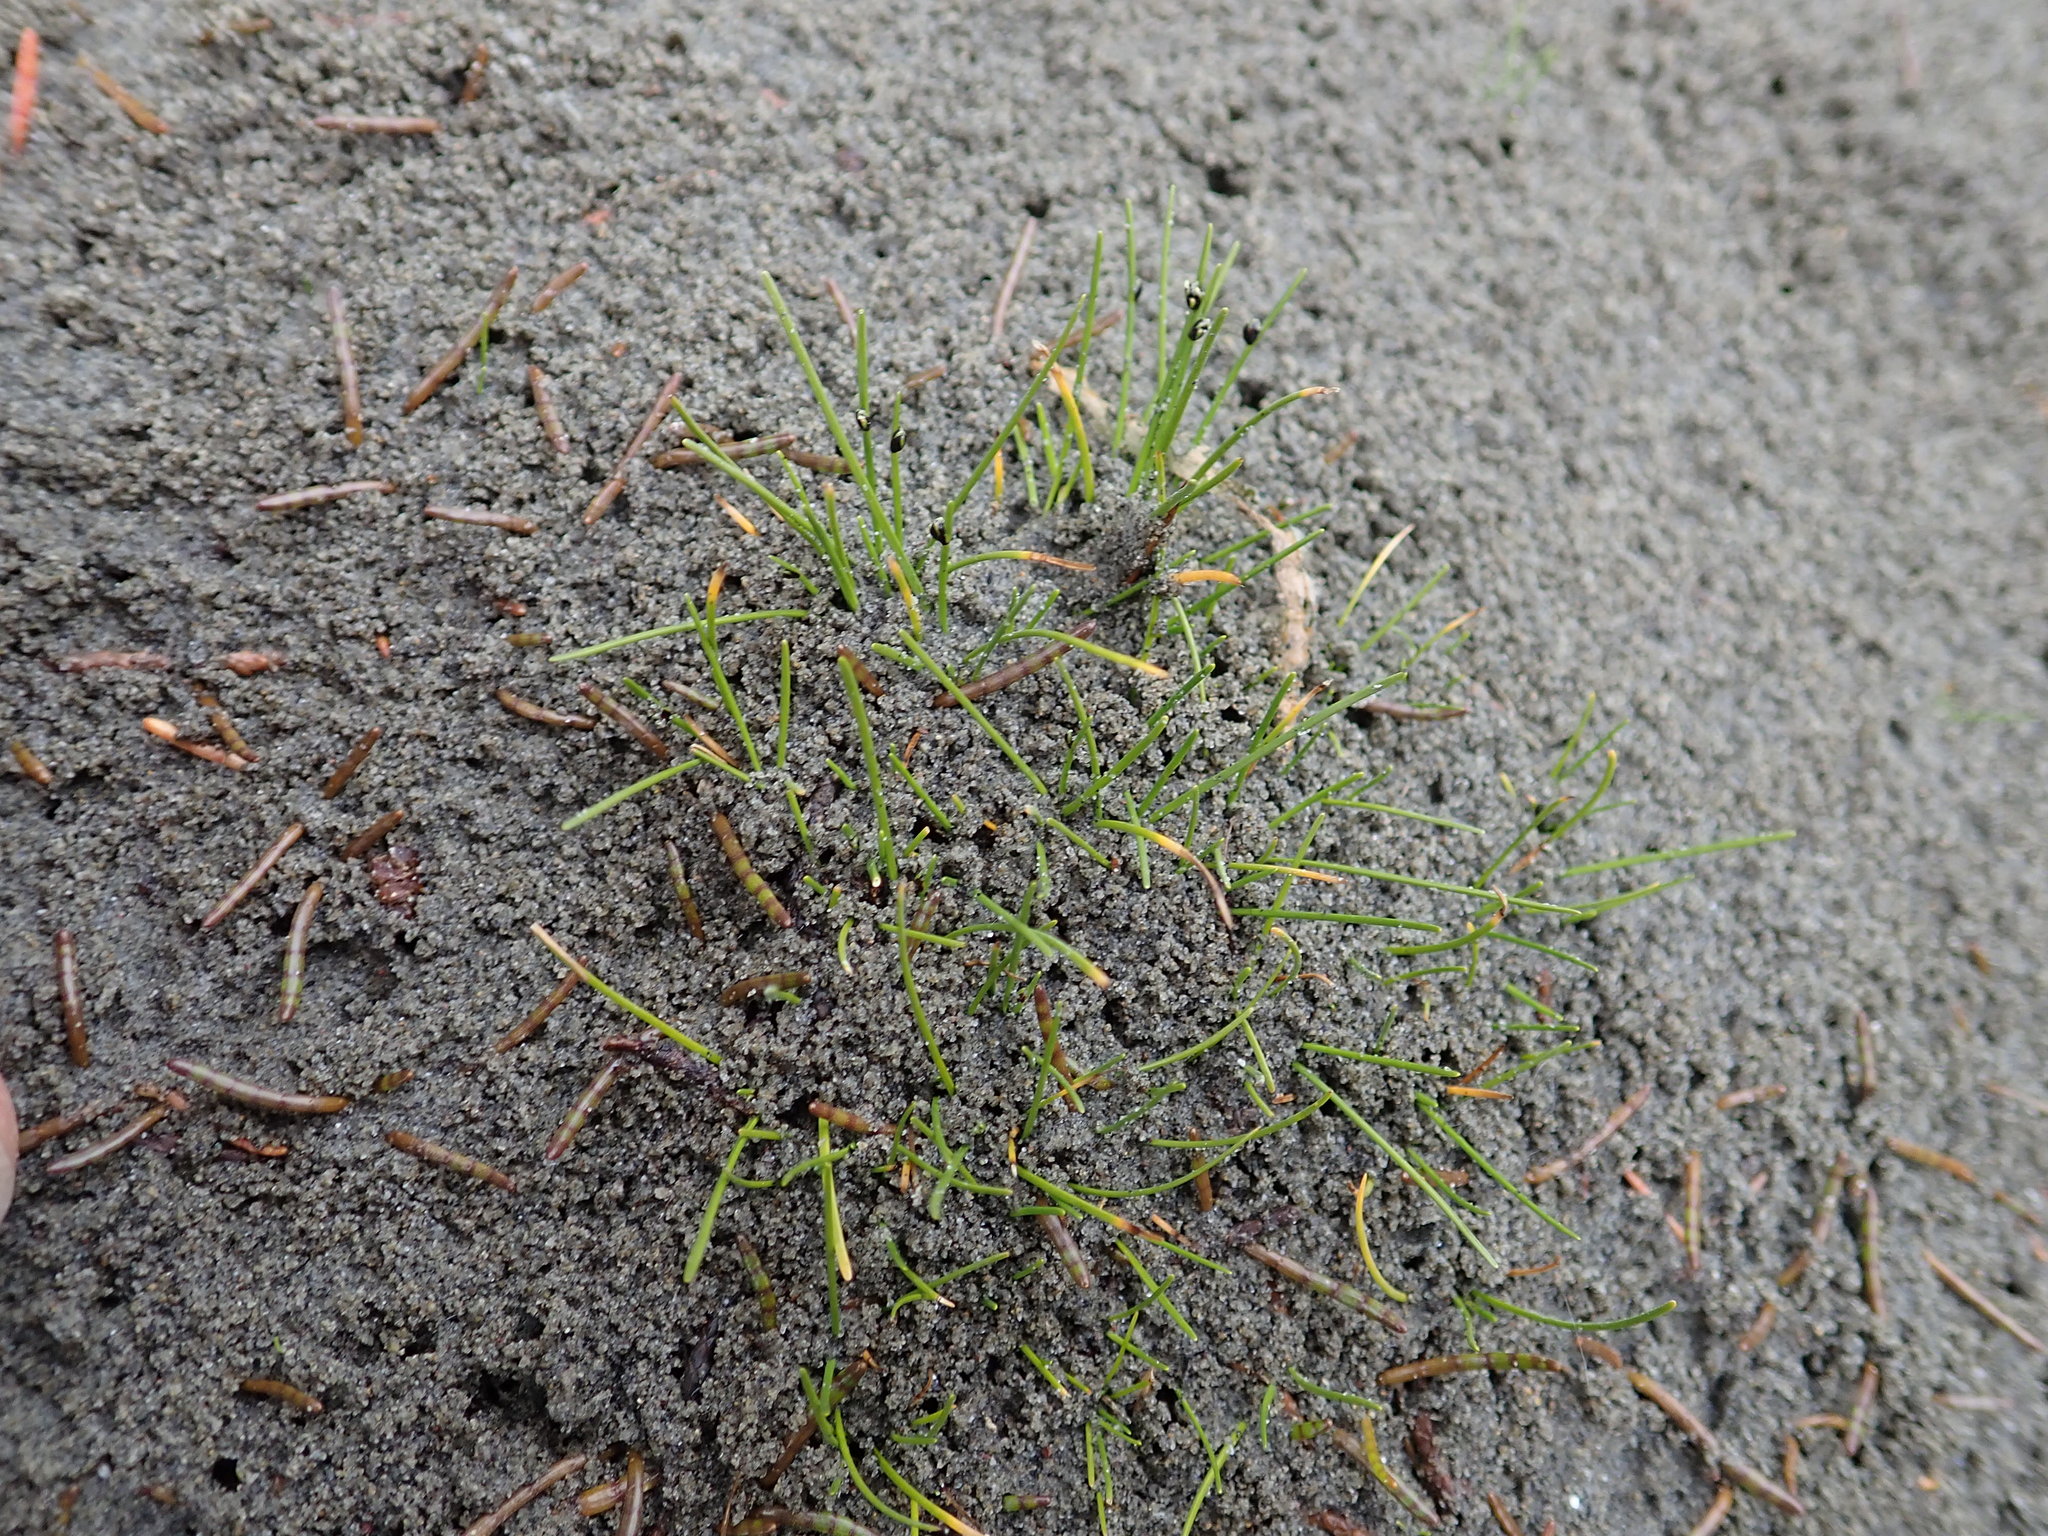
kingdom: Plantae
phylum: Tracheophyta
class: Liliopsida
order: Poales
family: Cyperaceae
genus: Isolepis
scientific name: Isolepis cernua
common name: Slender club-rush
